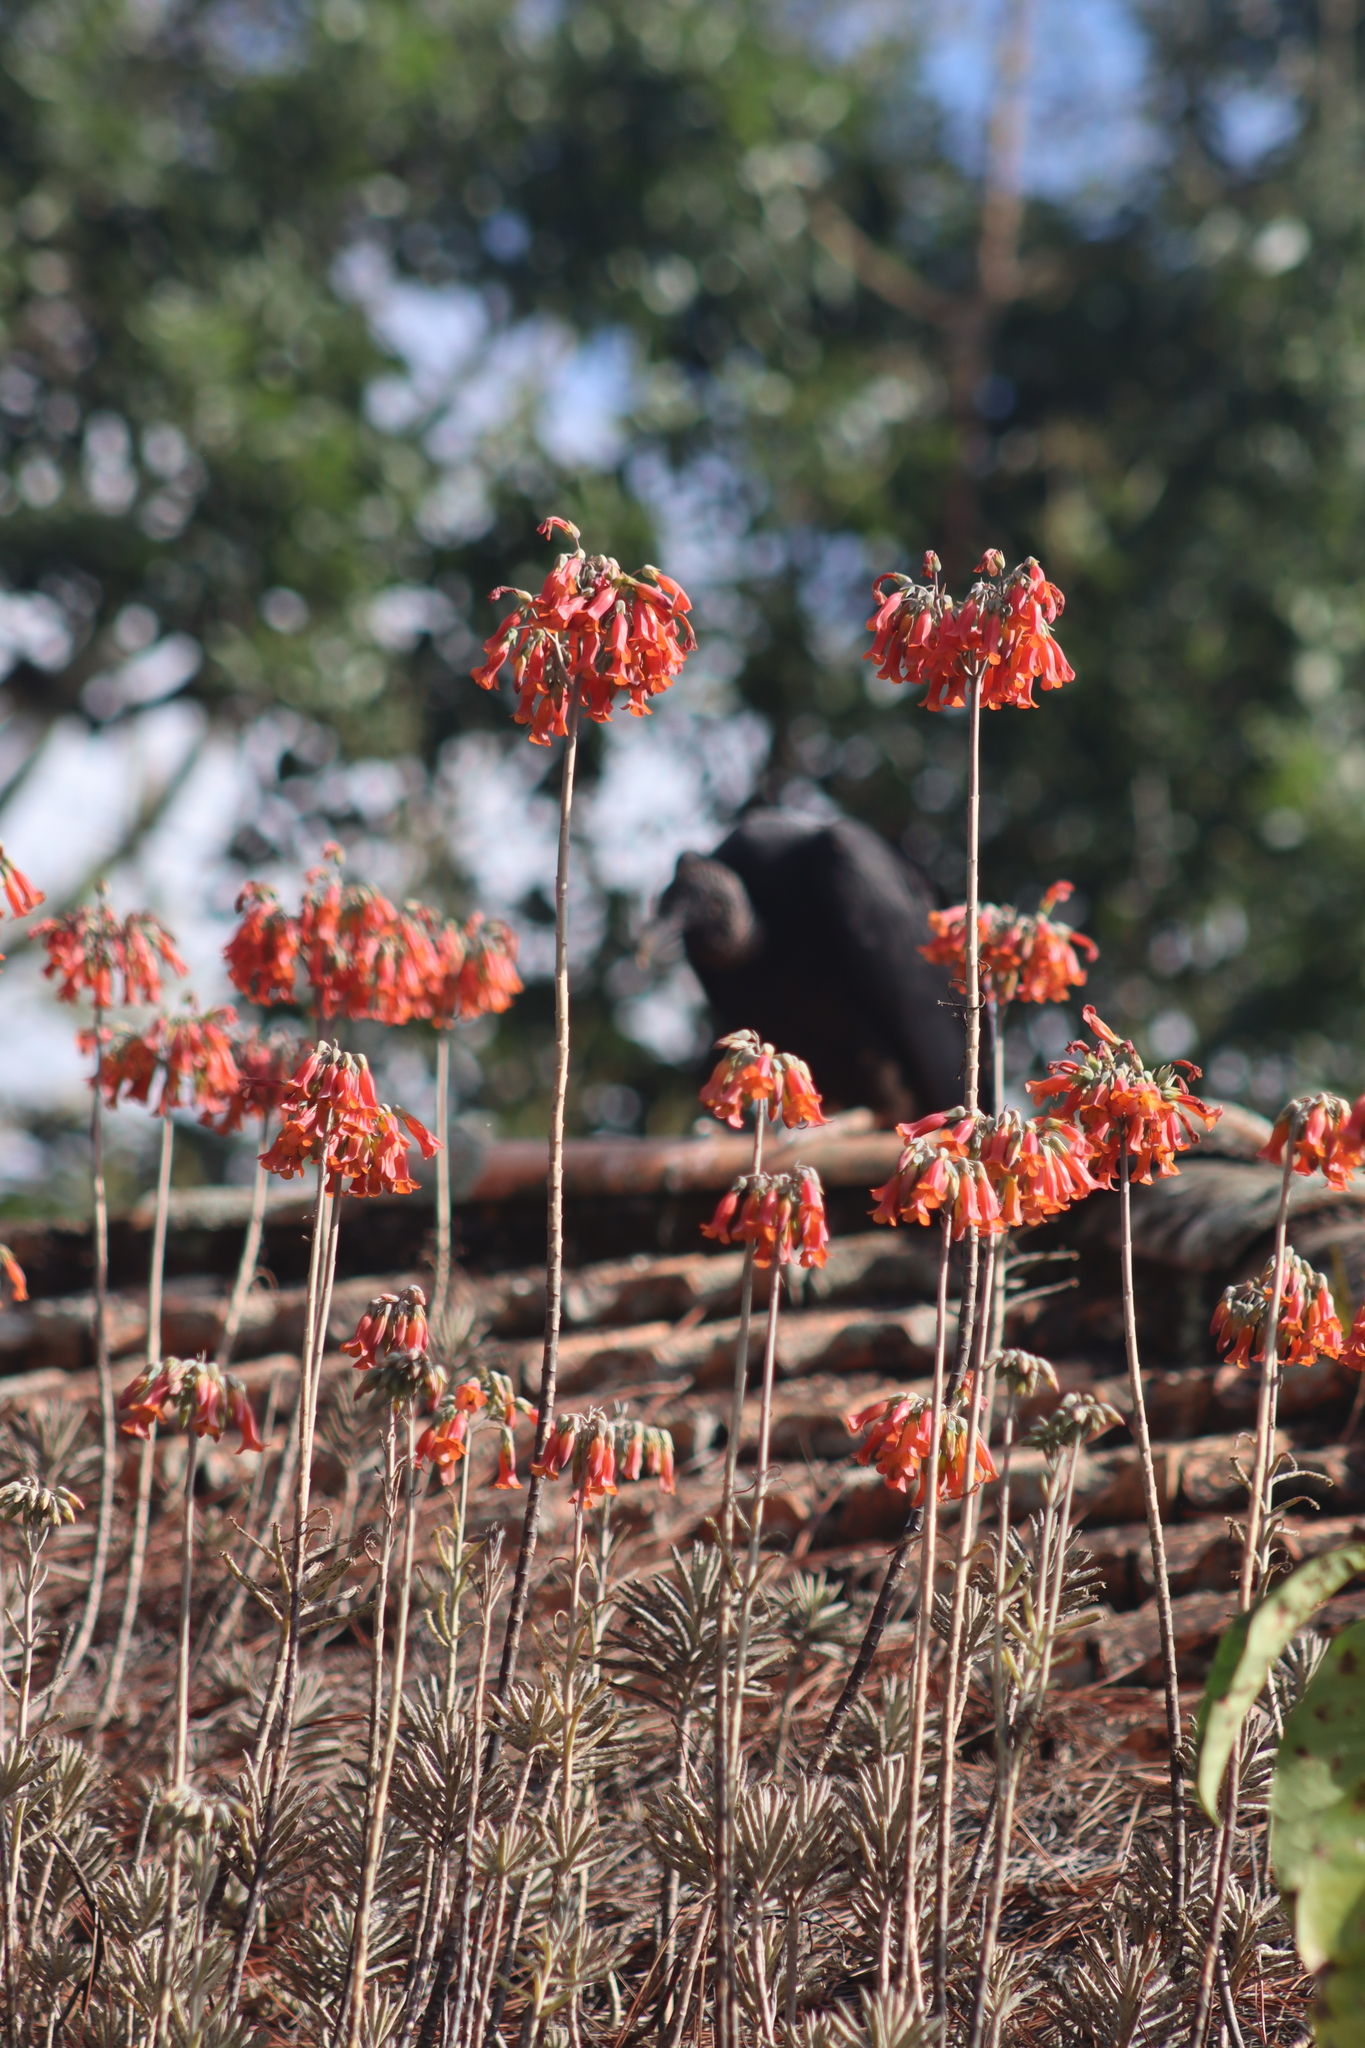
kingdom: Plantae
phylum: Tracheophyta
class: Magnoliopsida
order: Saxifragales
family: Crassulaceae
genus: Kalanchoe
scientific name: Kalanchoe delagoensis
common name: Chandelier plant
